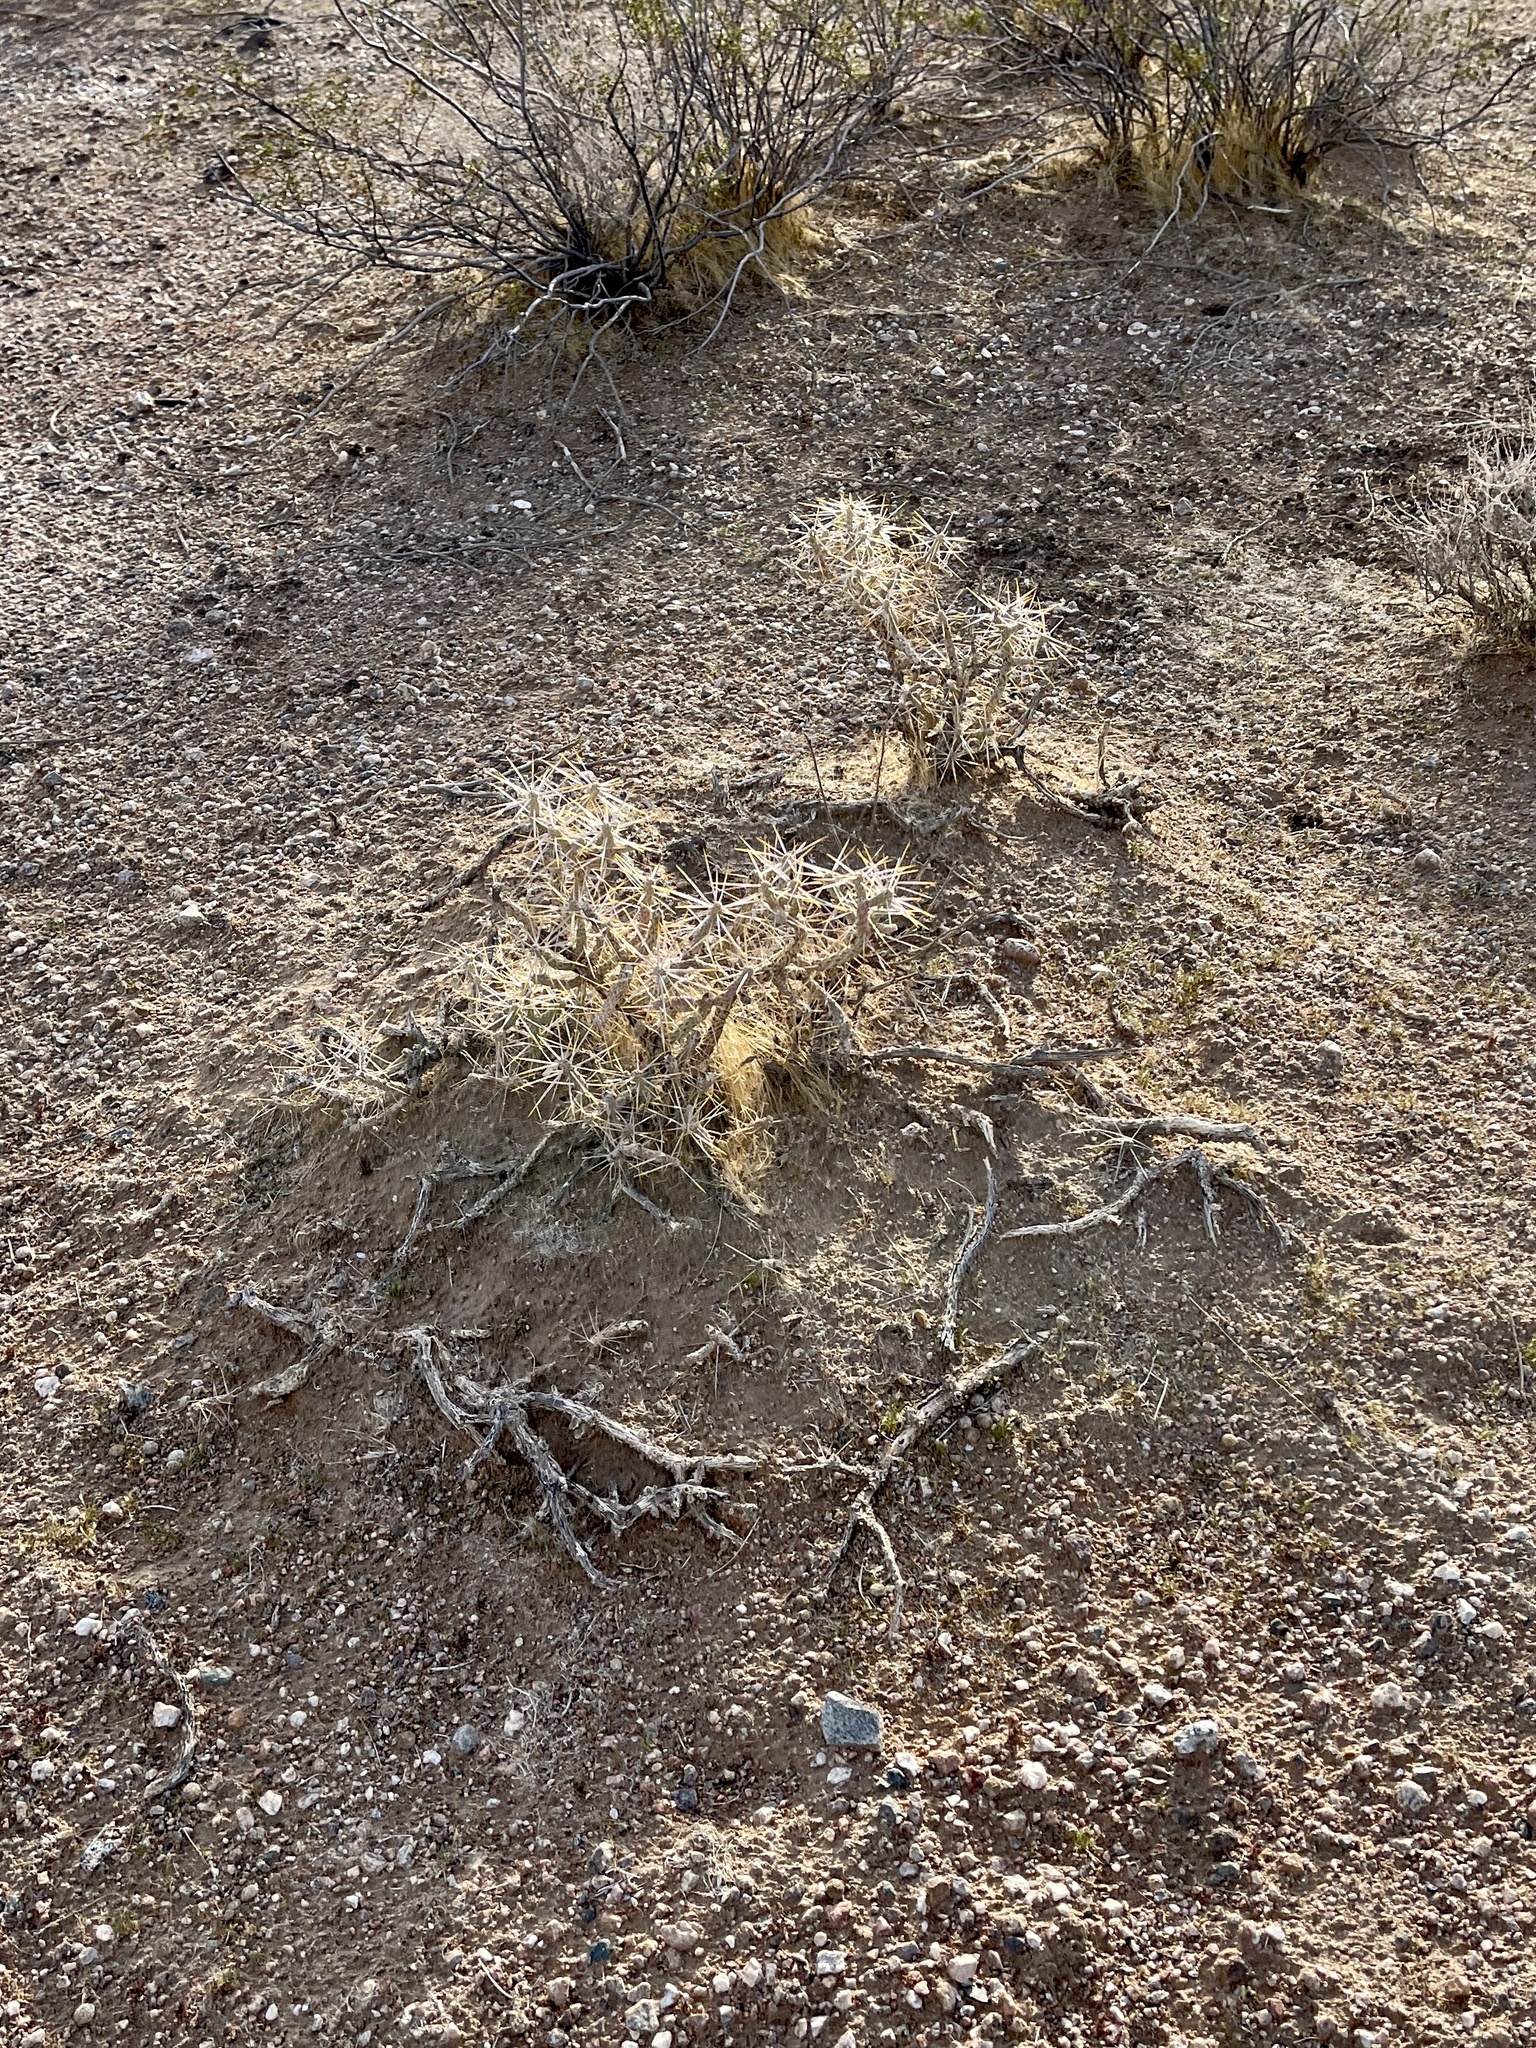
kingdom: Plantae
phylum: Tracheophyta
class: Magnoliopsida
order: Caryophyllales
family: Cactaceae
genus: Cylindropuntia
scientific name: Cylindropuntia ramosissima
